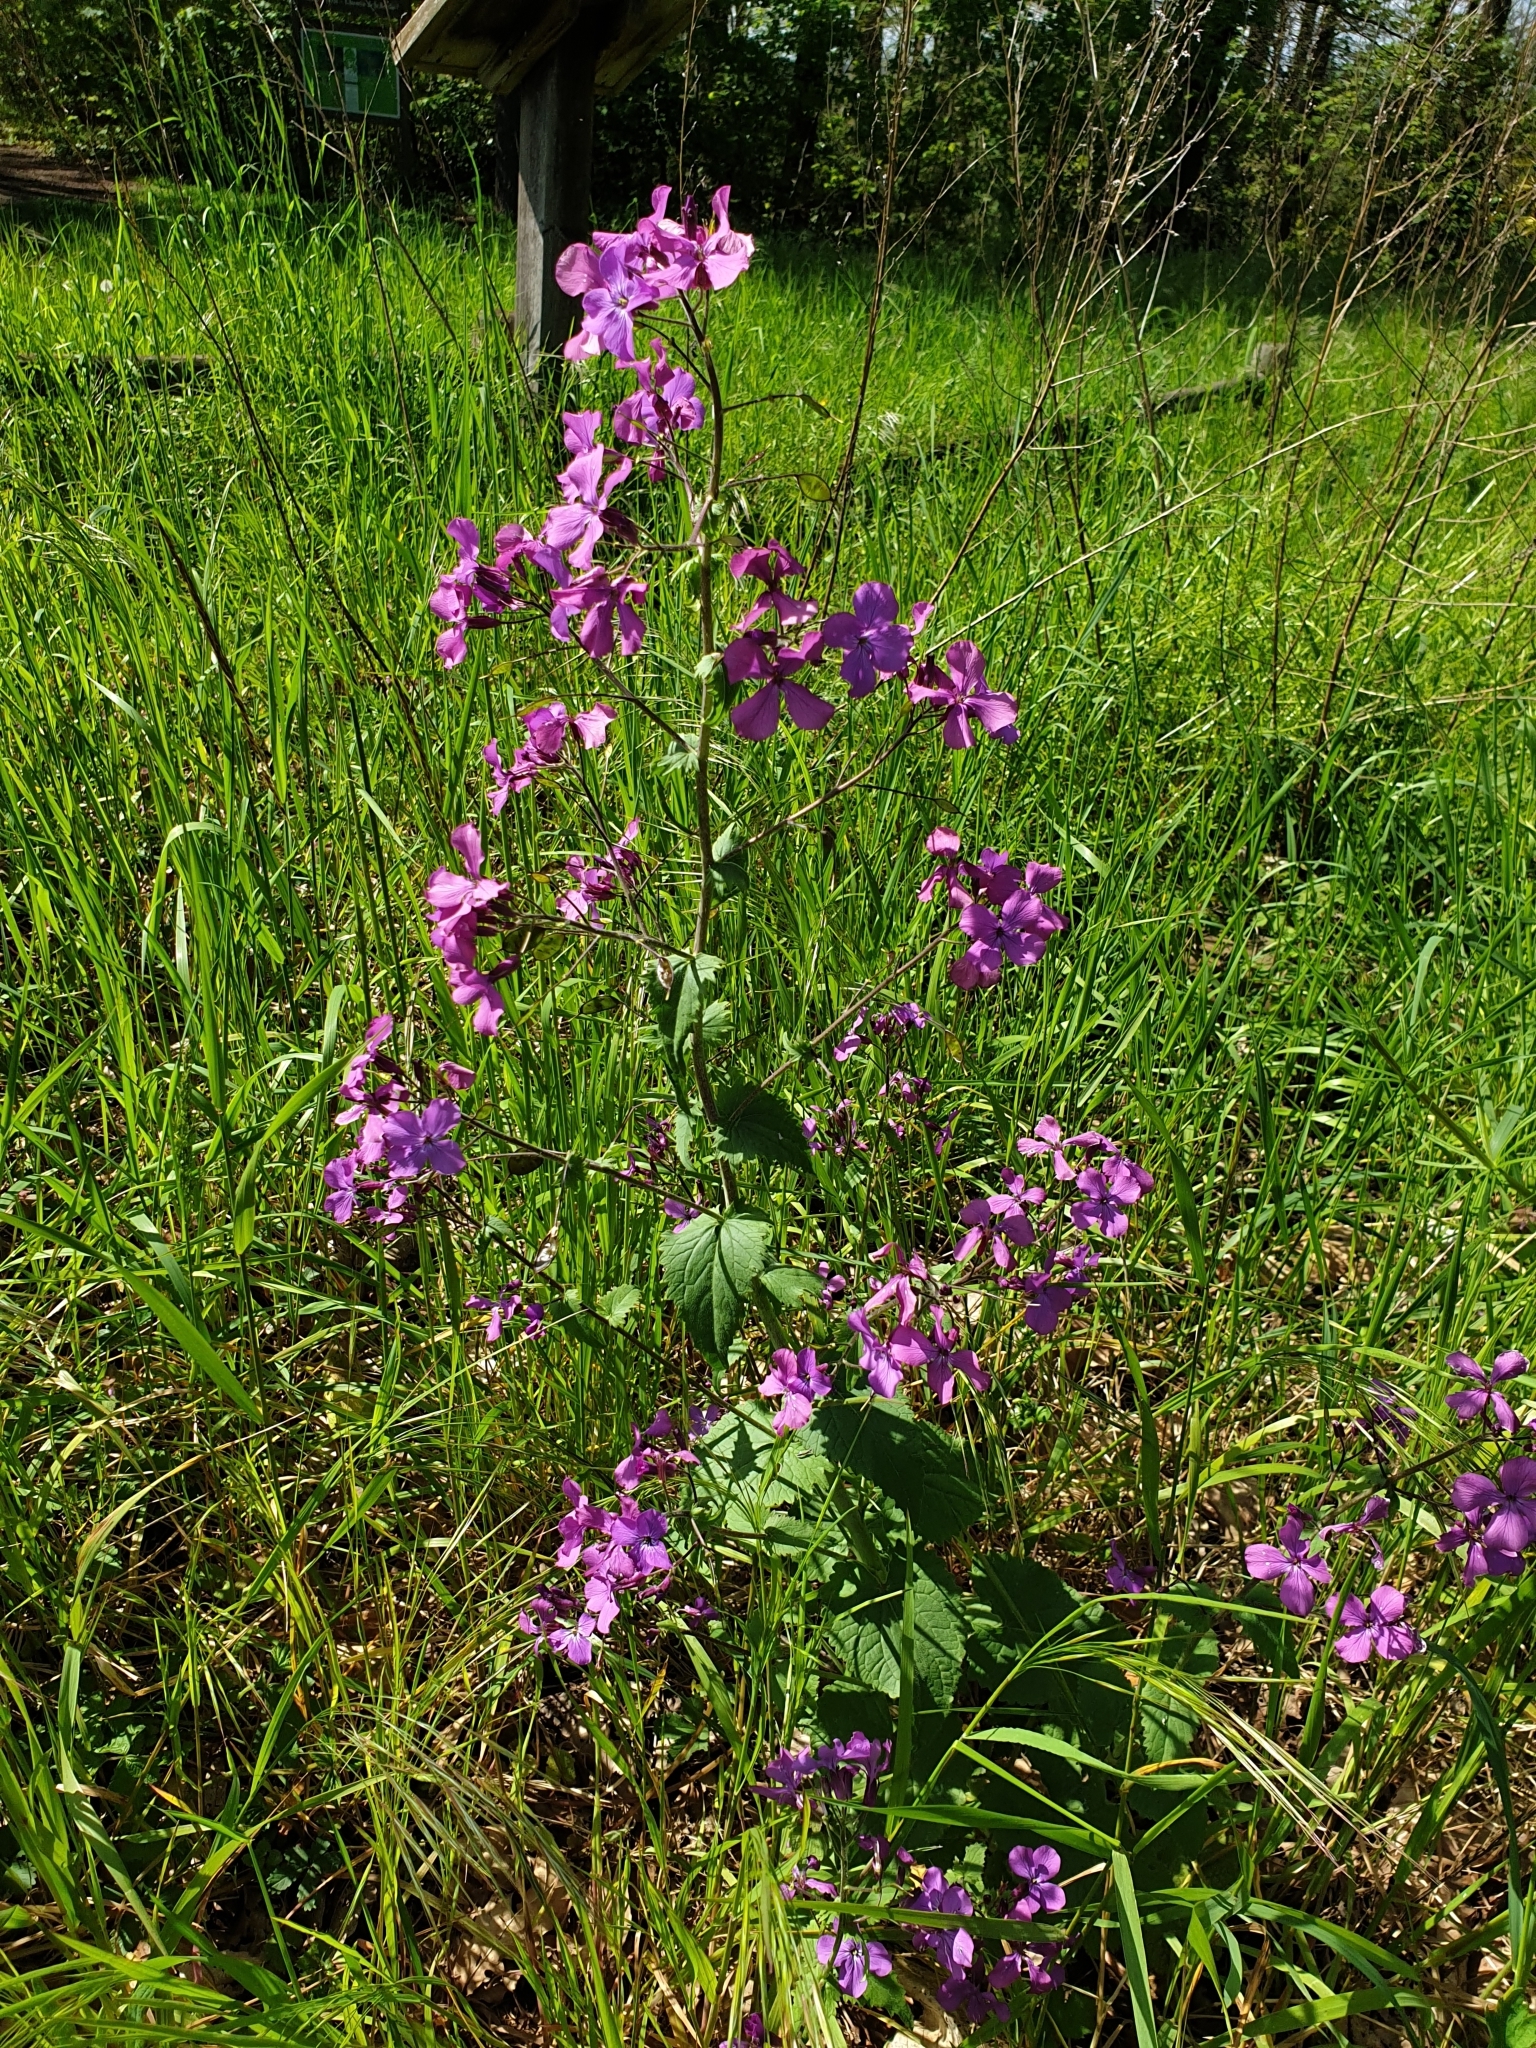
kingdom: Plantae
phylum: Tracheophyta
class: Magnoliopsida
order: Brassicales
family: Brassicaceae
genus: Lunaria
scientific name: Lunaria annua
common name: Honesty
